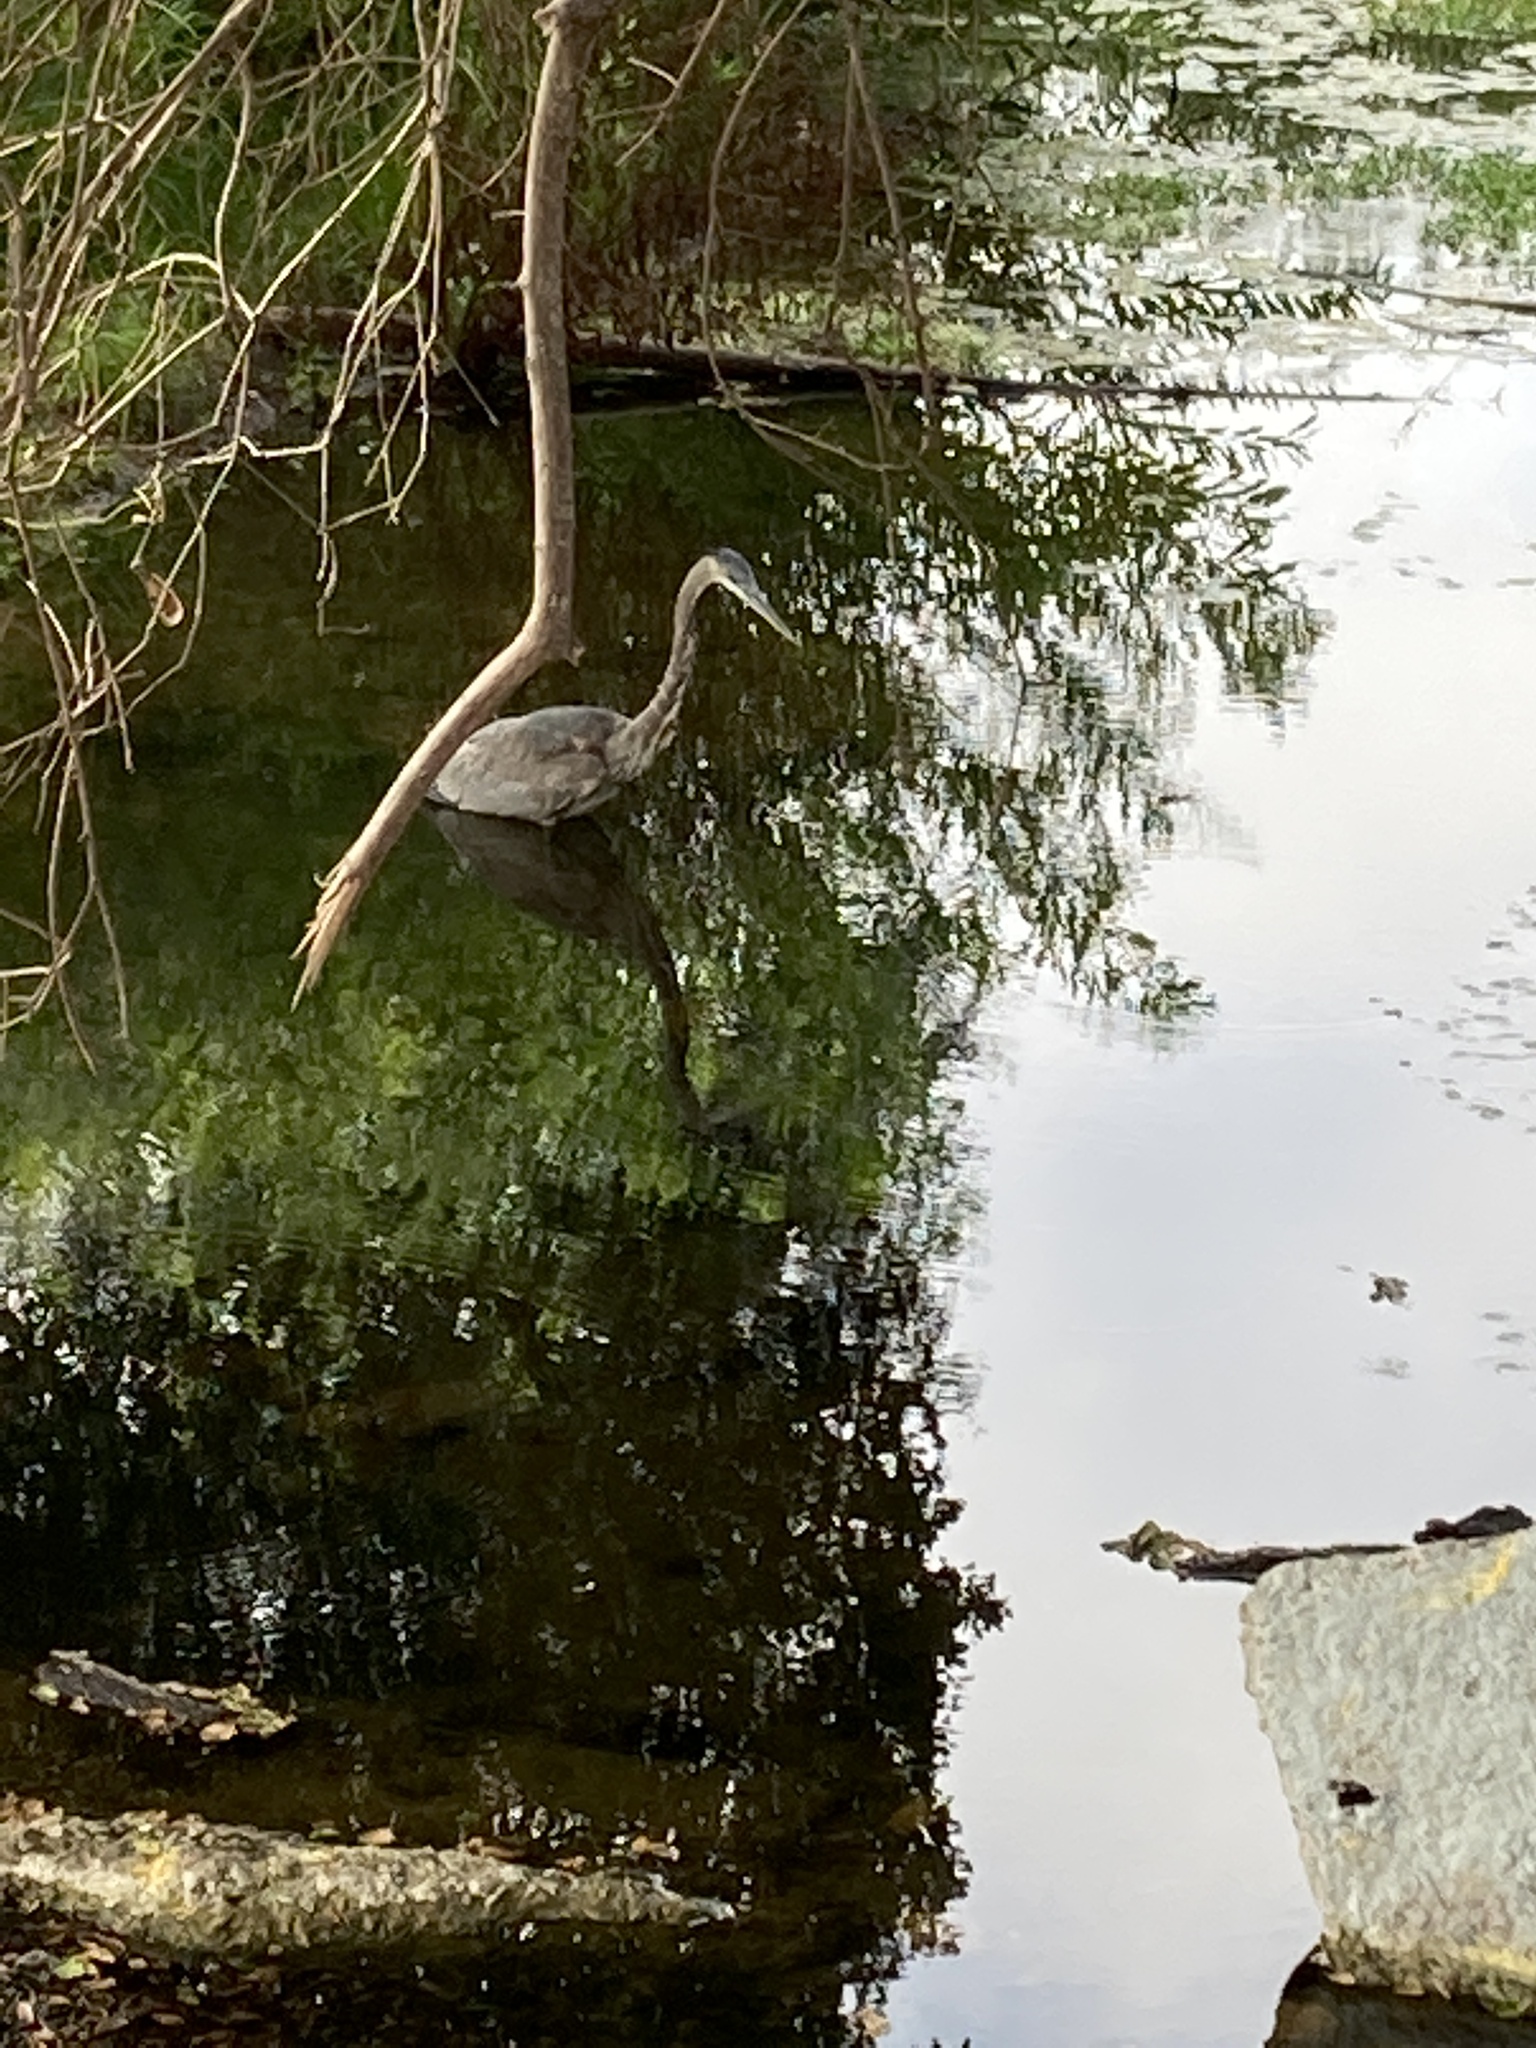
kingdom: Animalia
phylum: Chordata
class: Aves
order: Pelecaniformes
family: Ardeidae
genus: Ardea
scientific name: Ardea herodias
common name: Great blue heron
